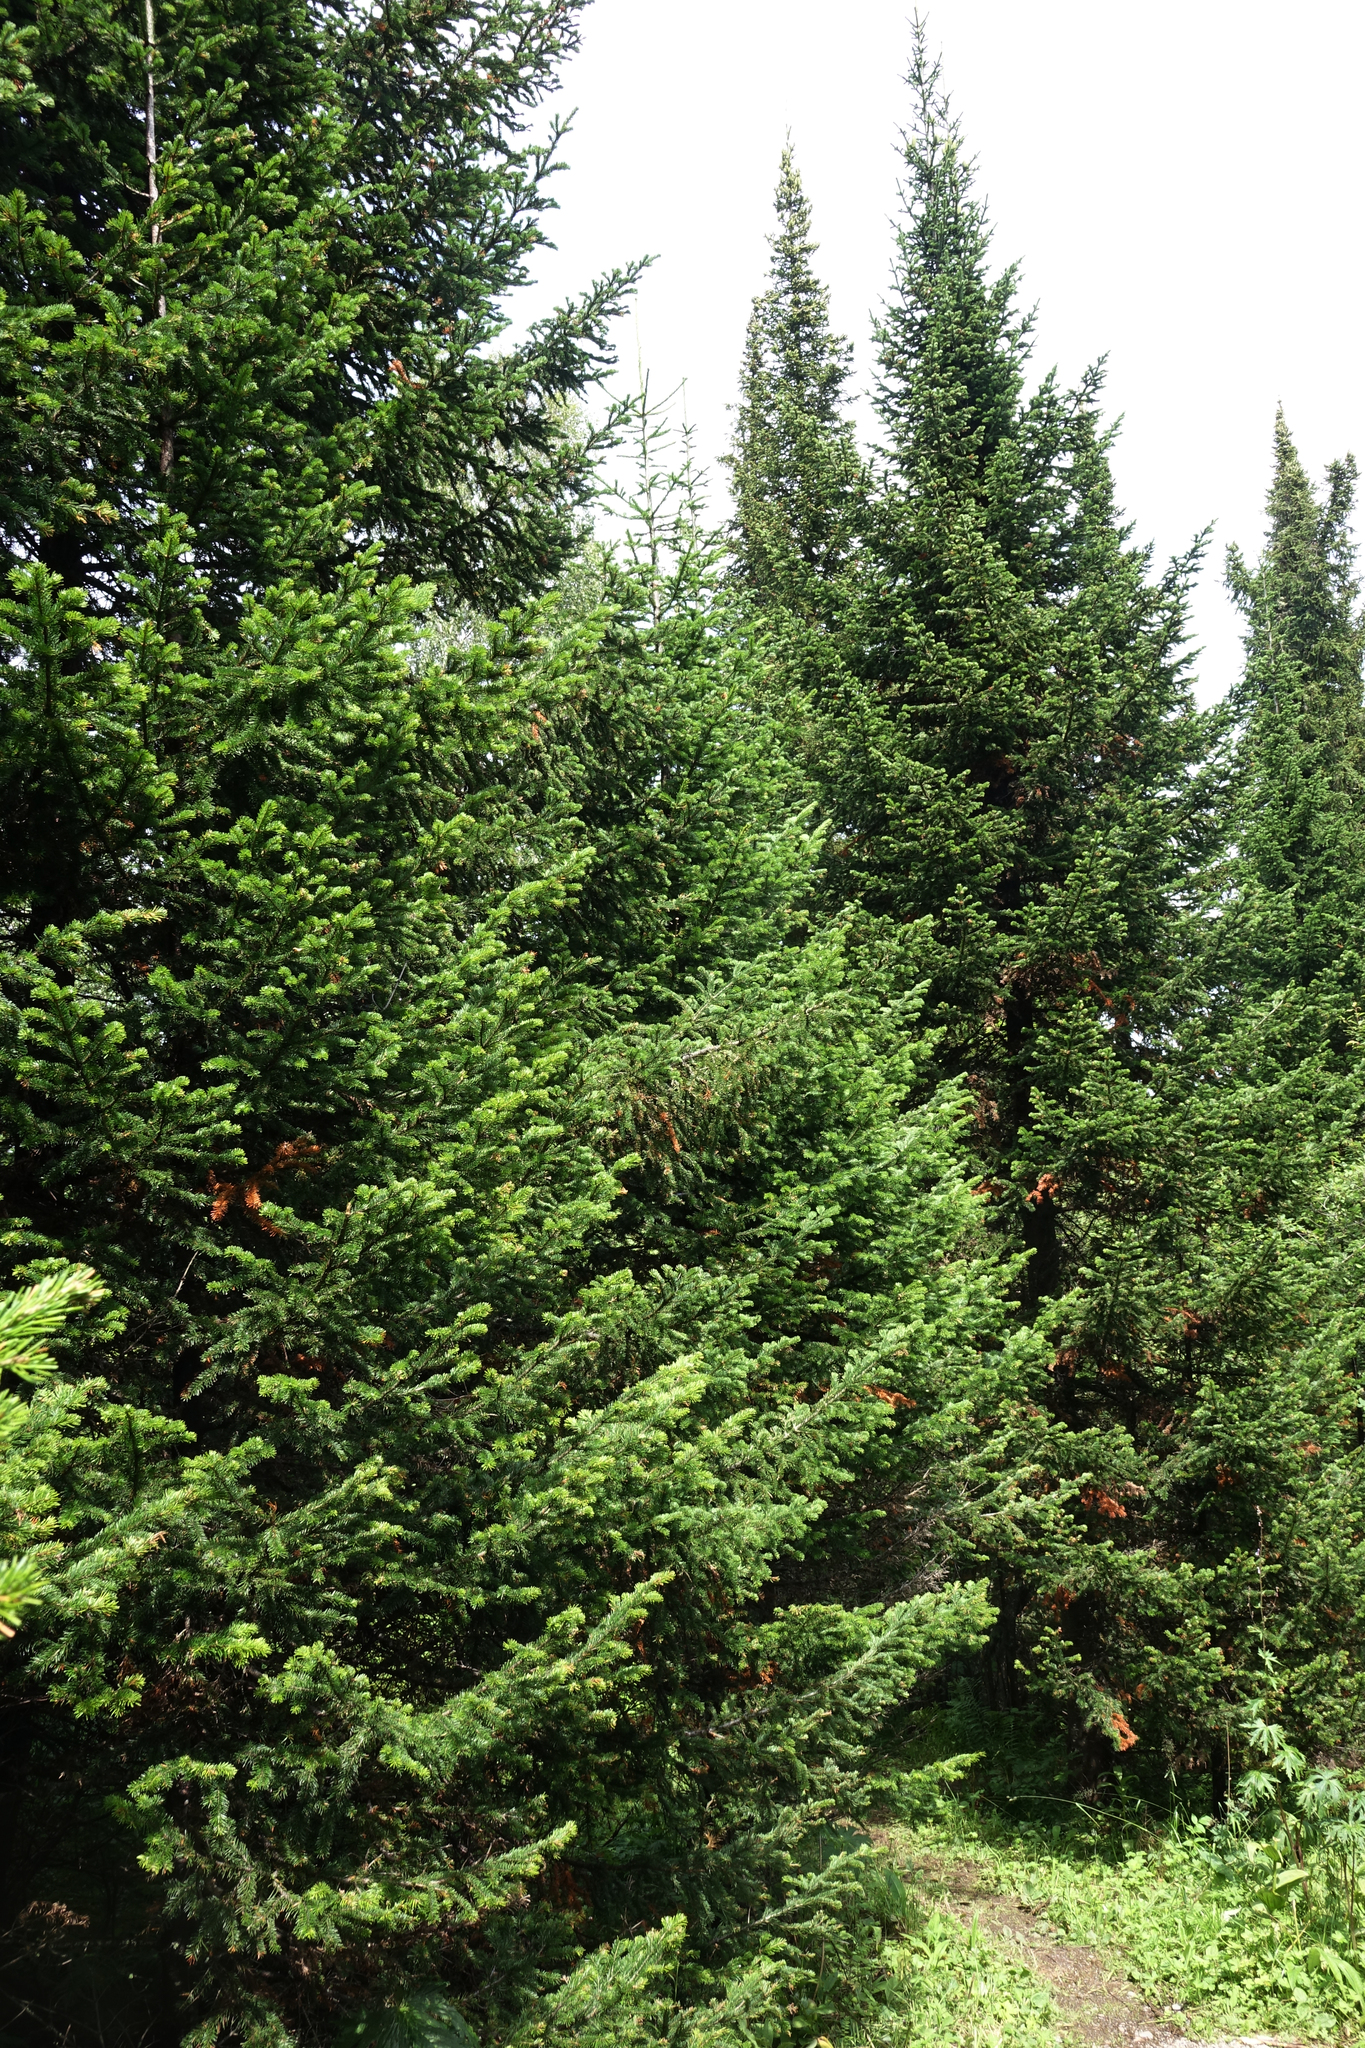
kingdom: Plantae
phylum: Tracheophyta
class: Pinopsida
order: Pinales
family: Pinaceae
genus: Abies
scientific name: Abies sibirica
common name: Siberian fir
